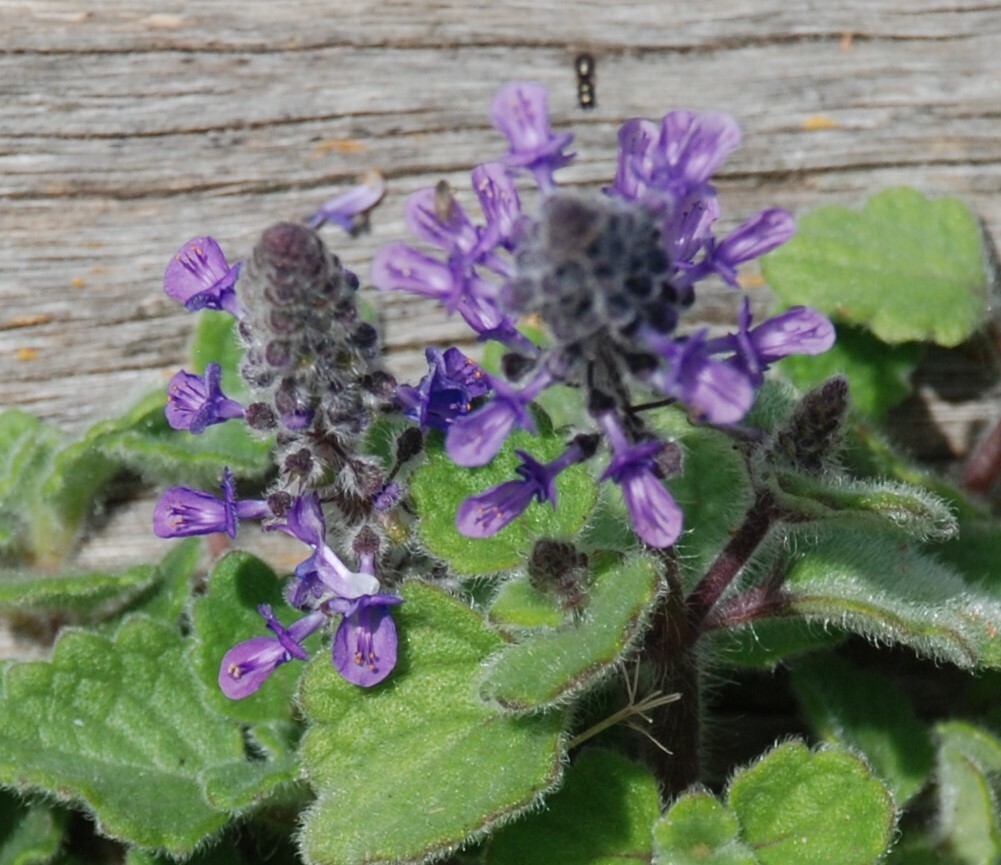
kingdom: Plantae
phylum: Tracheophyta
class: Magnoliopsida
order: Lamiales
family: Lamiaceae
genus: Coleus
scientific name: Coleus cremnus
